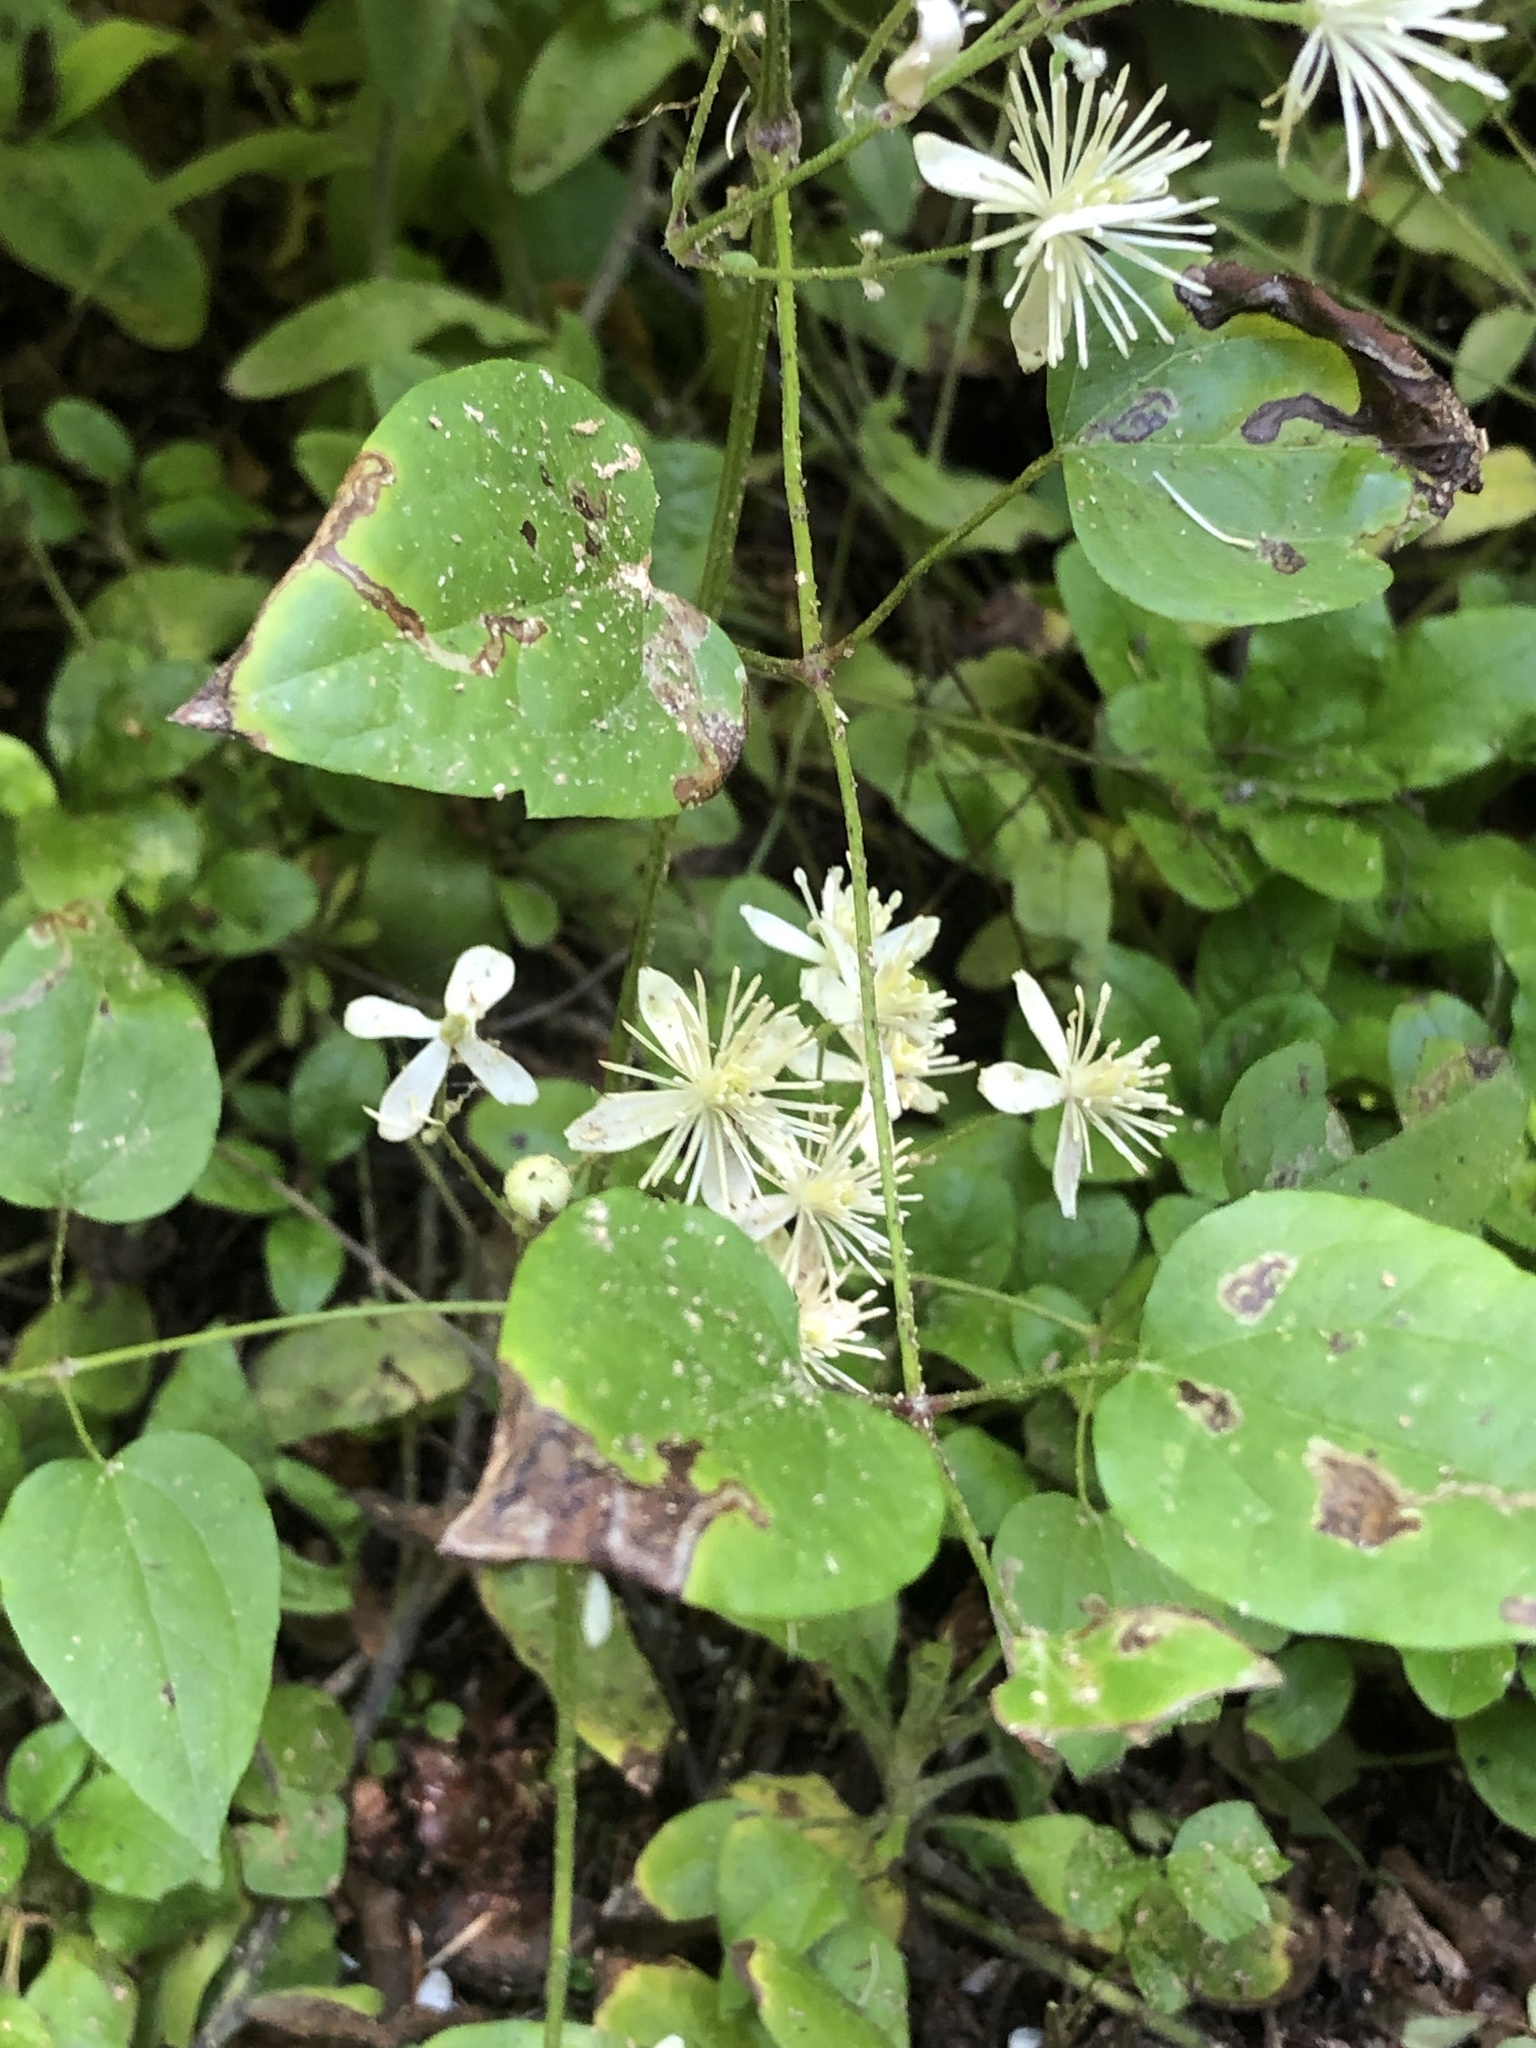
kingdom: Plantae
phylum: Tracheophyta
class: Magnoliopsida
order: Ranunculales
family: Ranunculaceae
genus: Clematis
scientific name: Clematis vitalba
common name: Evergreen clematis
